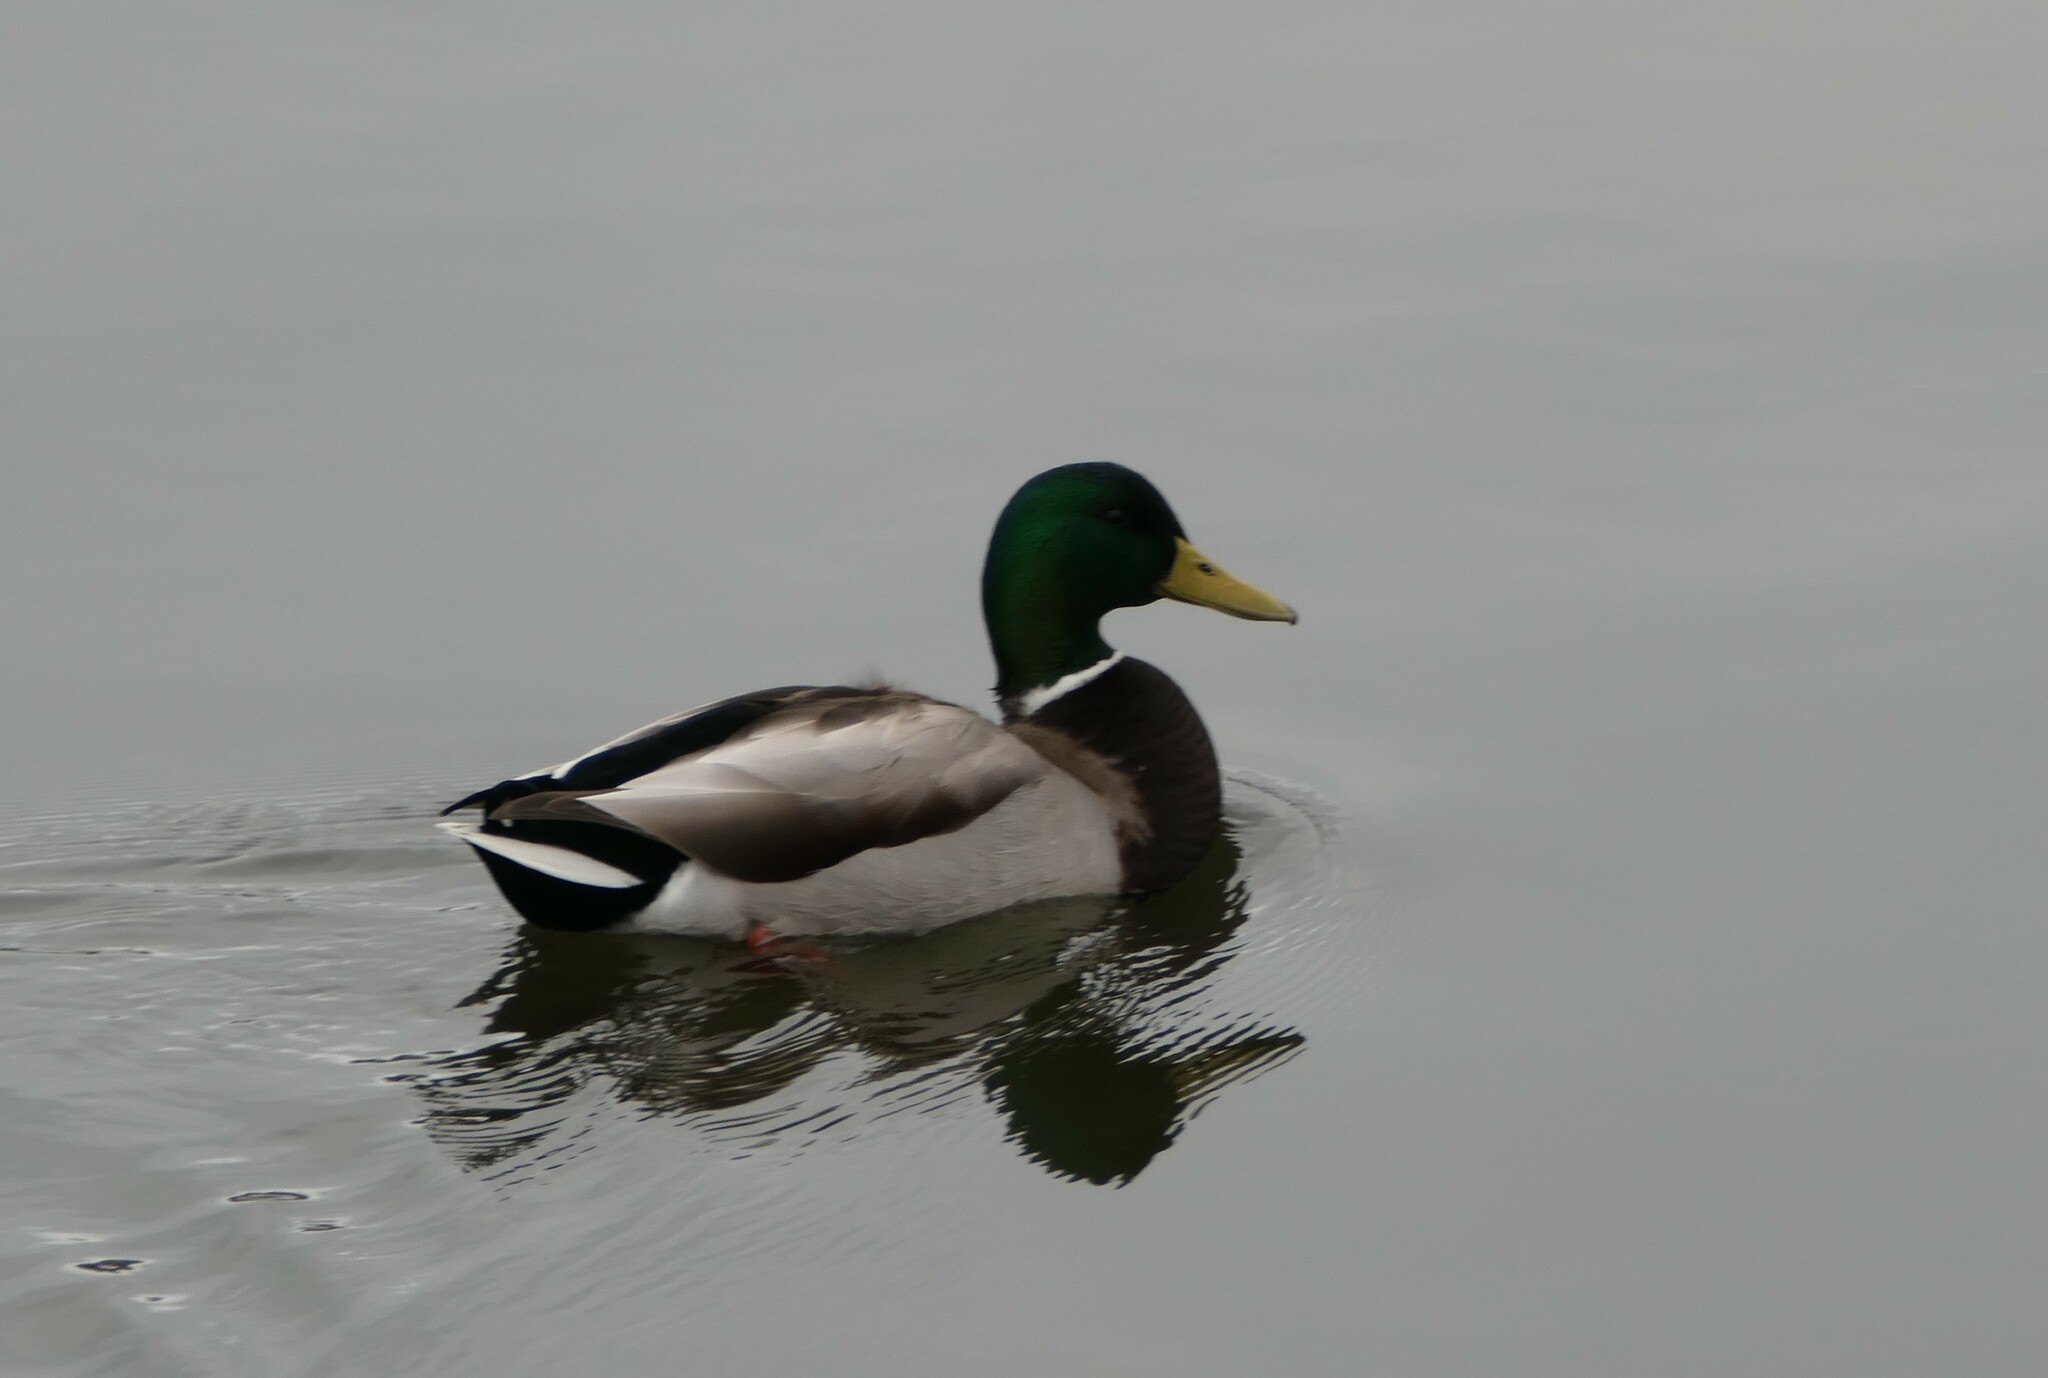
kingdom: Animalia
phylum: Chordata
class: Aves
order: Anseriformes
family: Anatidae
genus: Anas
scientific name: Anas platyrhynchos
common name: Mallard
